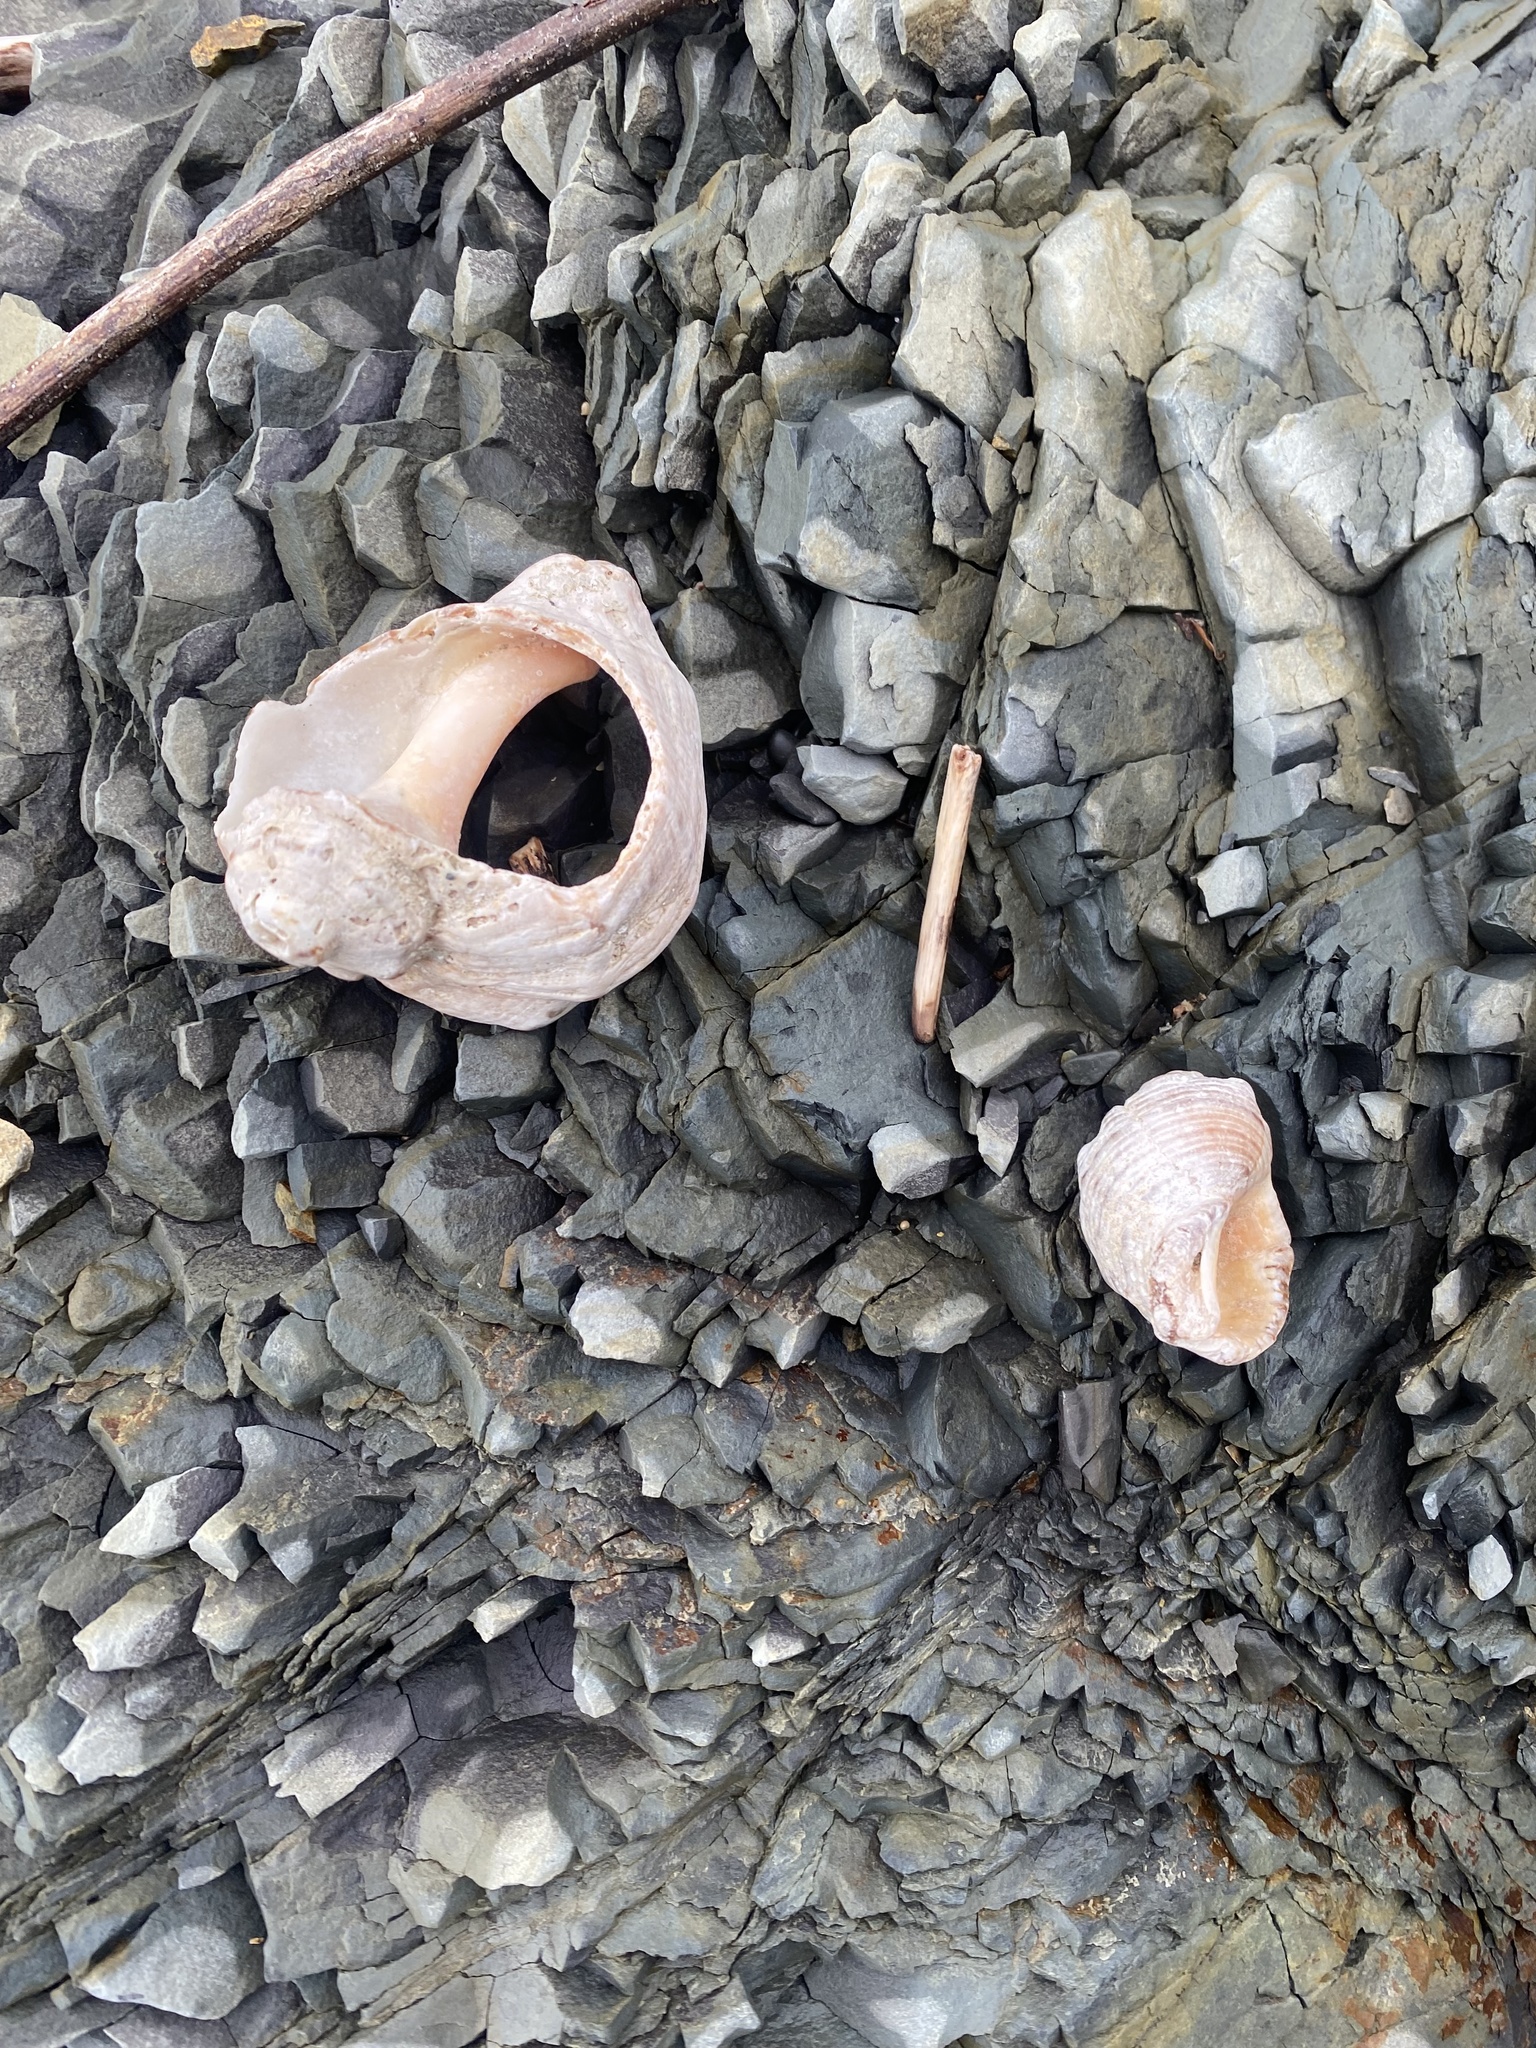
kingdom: Animalia
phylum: Mollusca
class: Gastropoda
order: Neogastropoda
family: Muricidae
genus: Rapana
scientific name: Rapana venosa
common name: Veined rapa whelk
